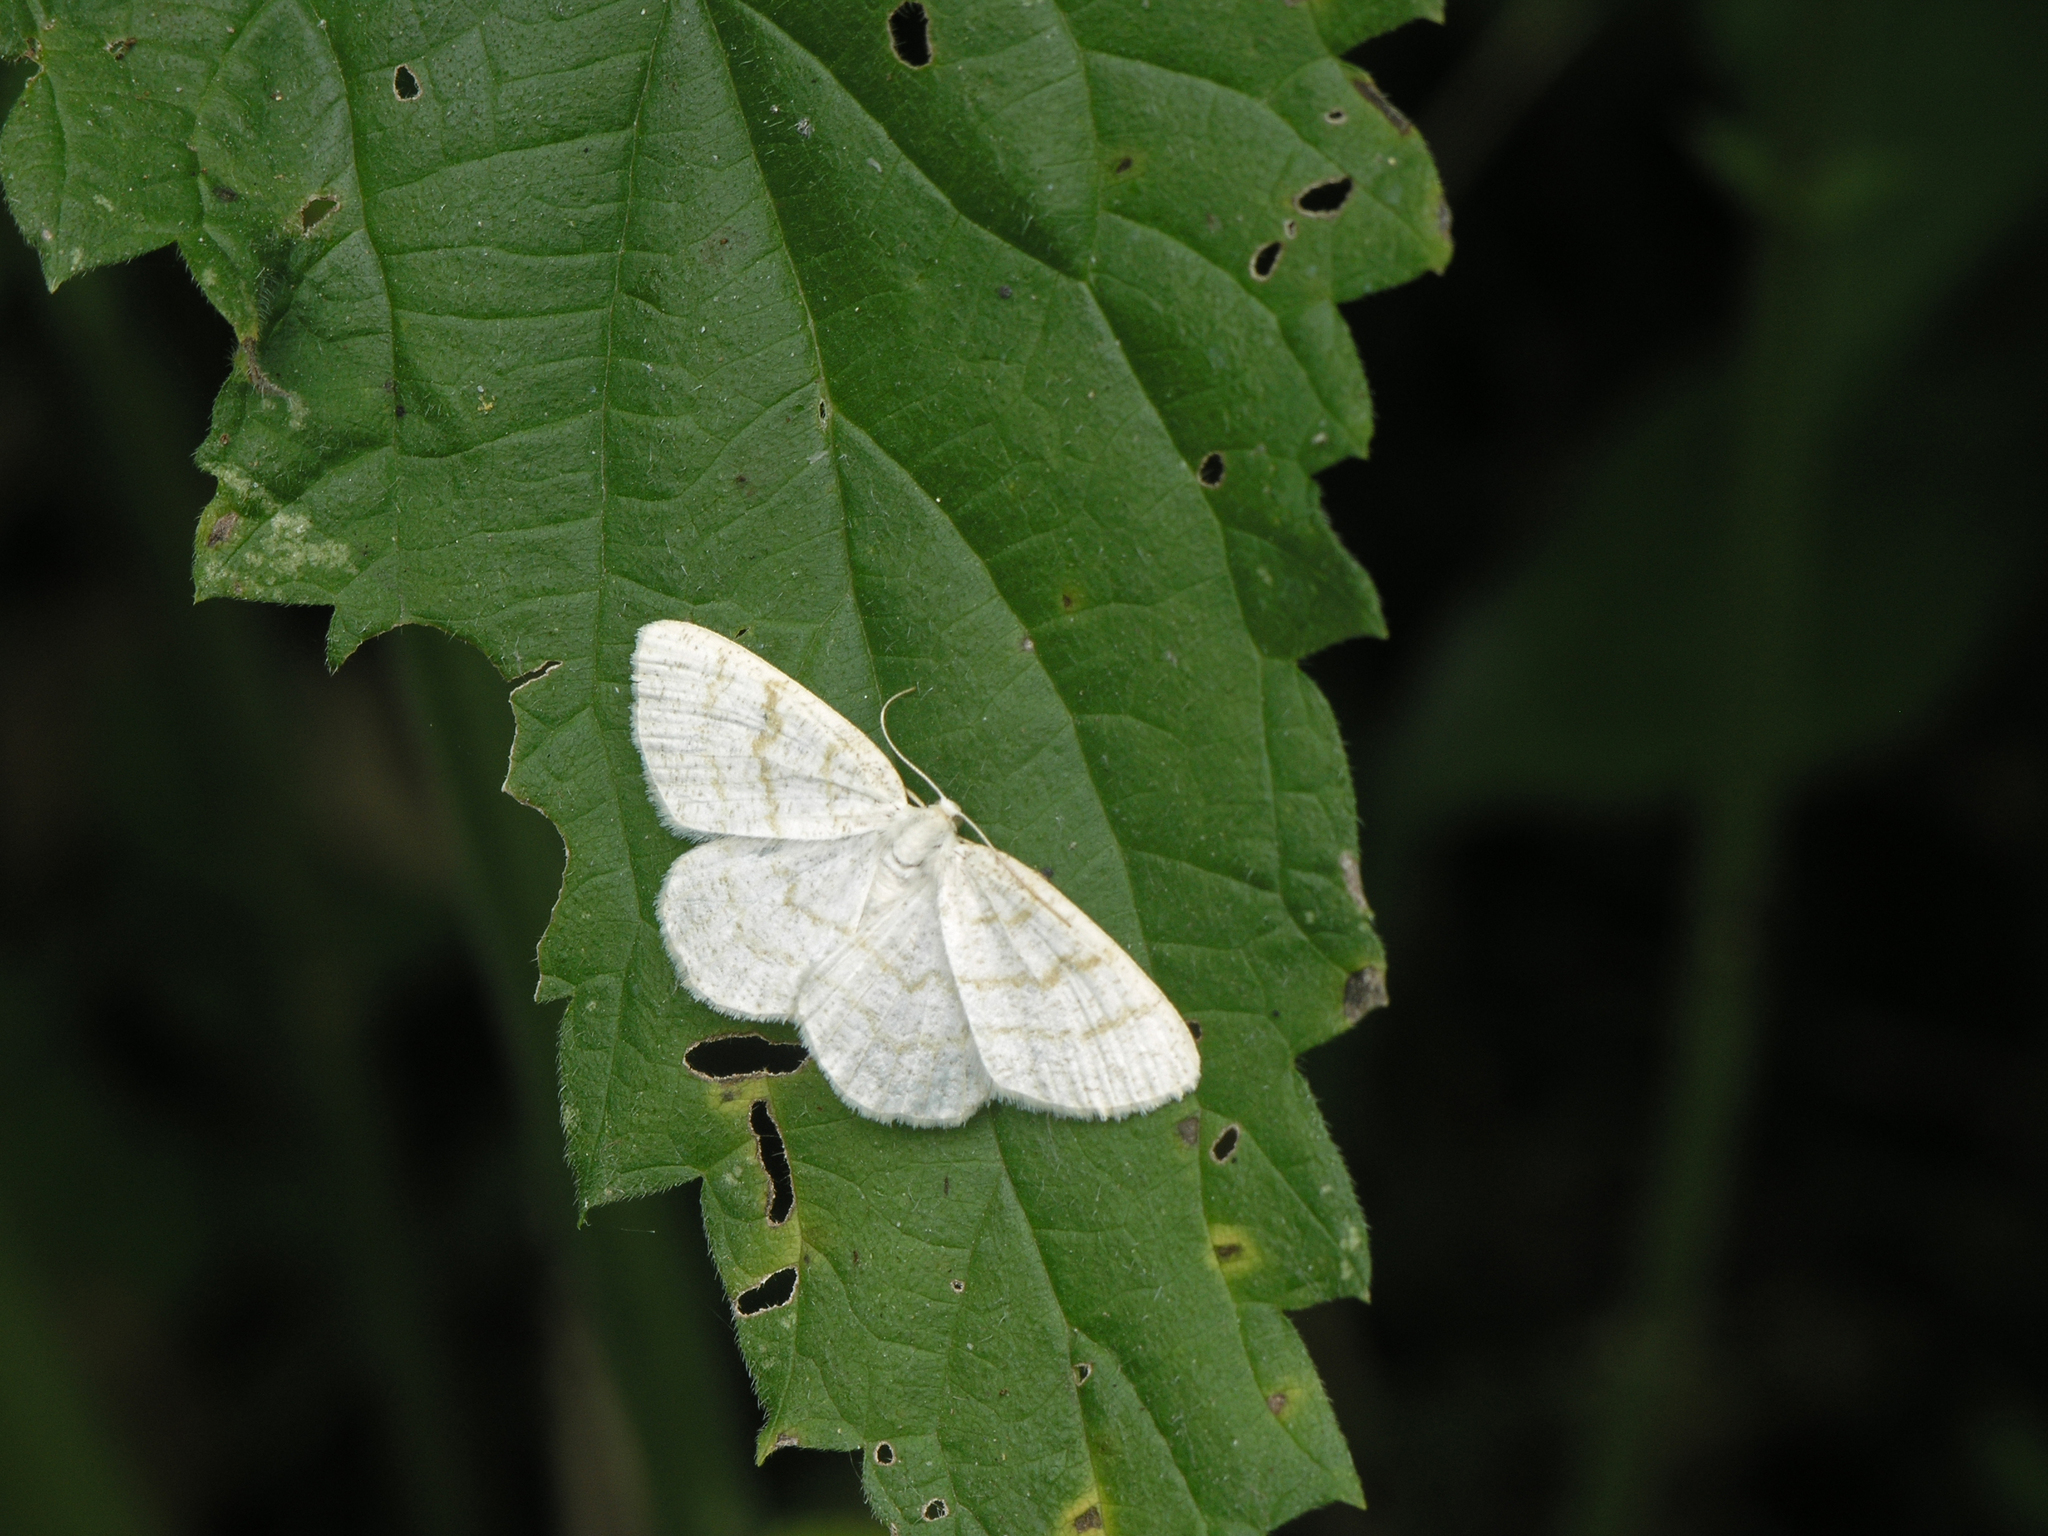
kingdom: Animalia
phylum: Arthropoda
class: Insecta
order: Lepidoptera
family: Geometridae
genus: Cabera
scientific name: Cabera exanthemata
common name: Common wave
